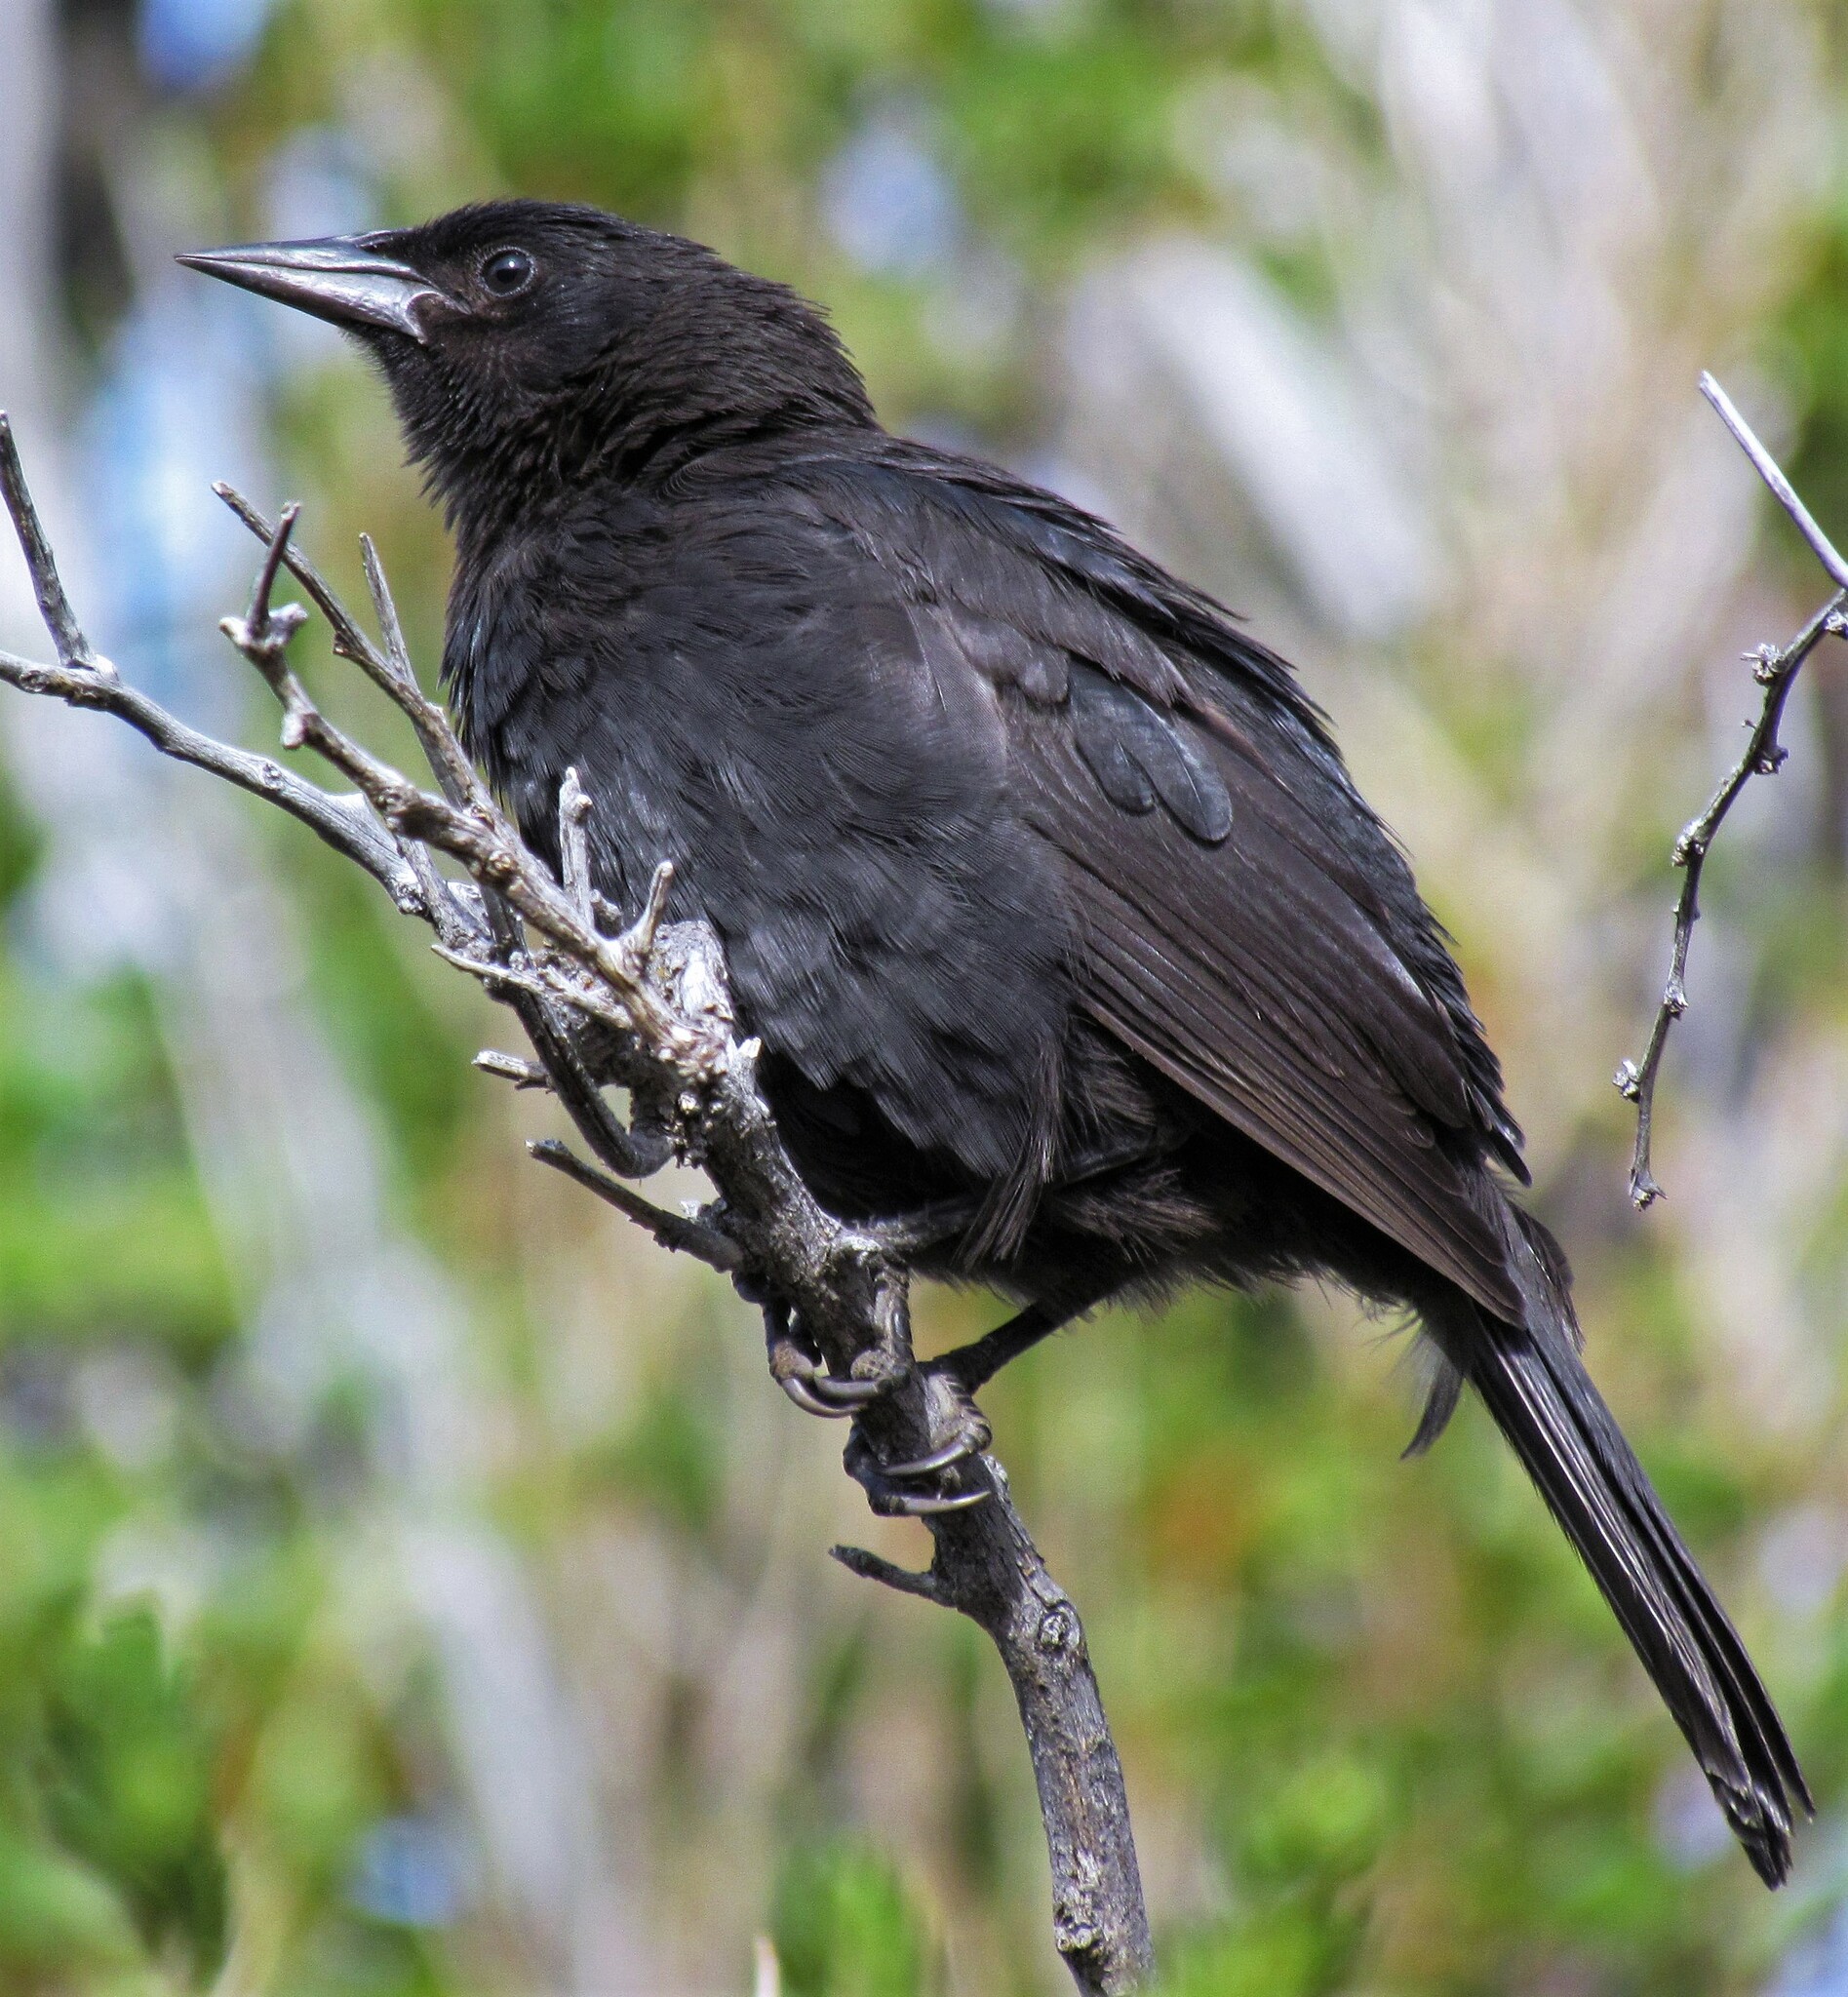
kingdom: Animalia
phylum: Chordata
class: Aves
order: Passeriformes
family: Icteridae
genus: Curaeus
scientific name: Curaeus curaeus
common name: Austral blackbird
